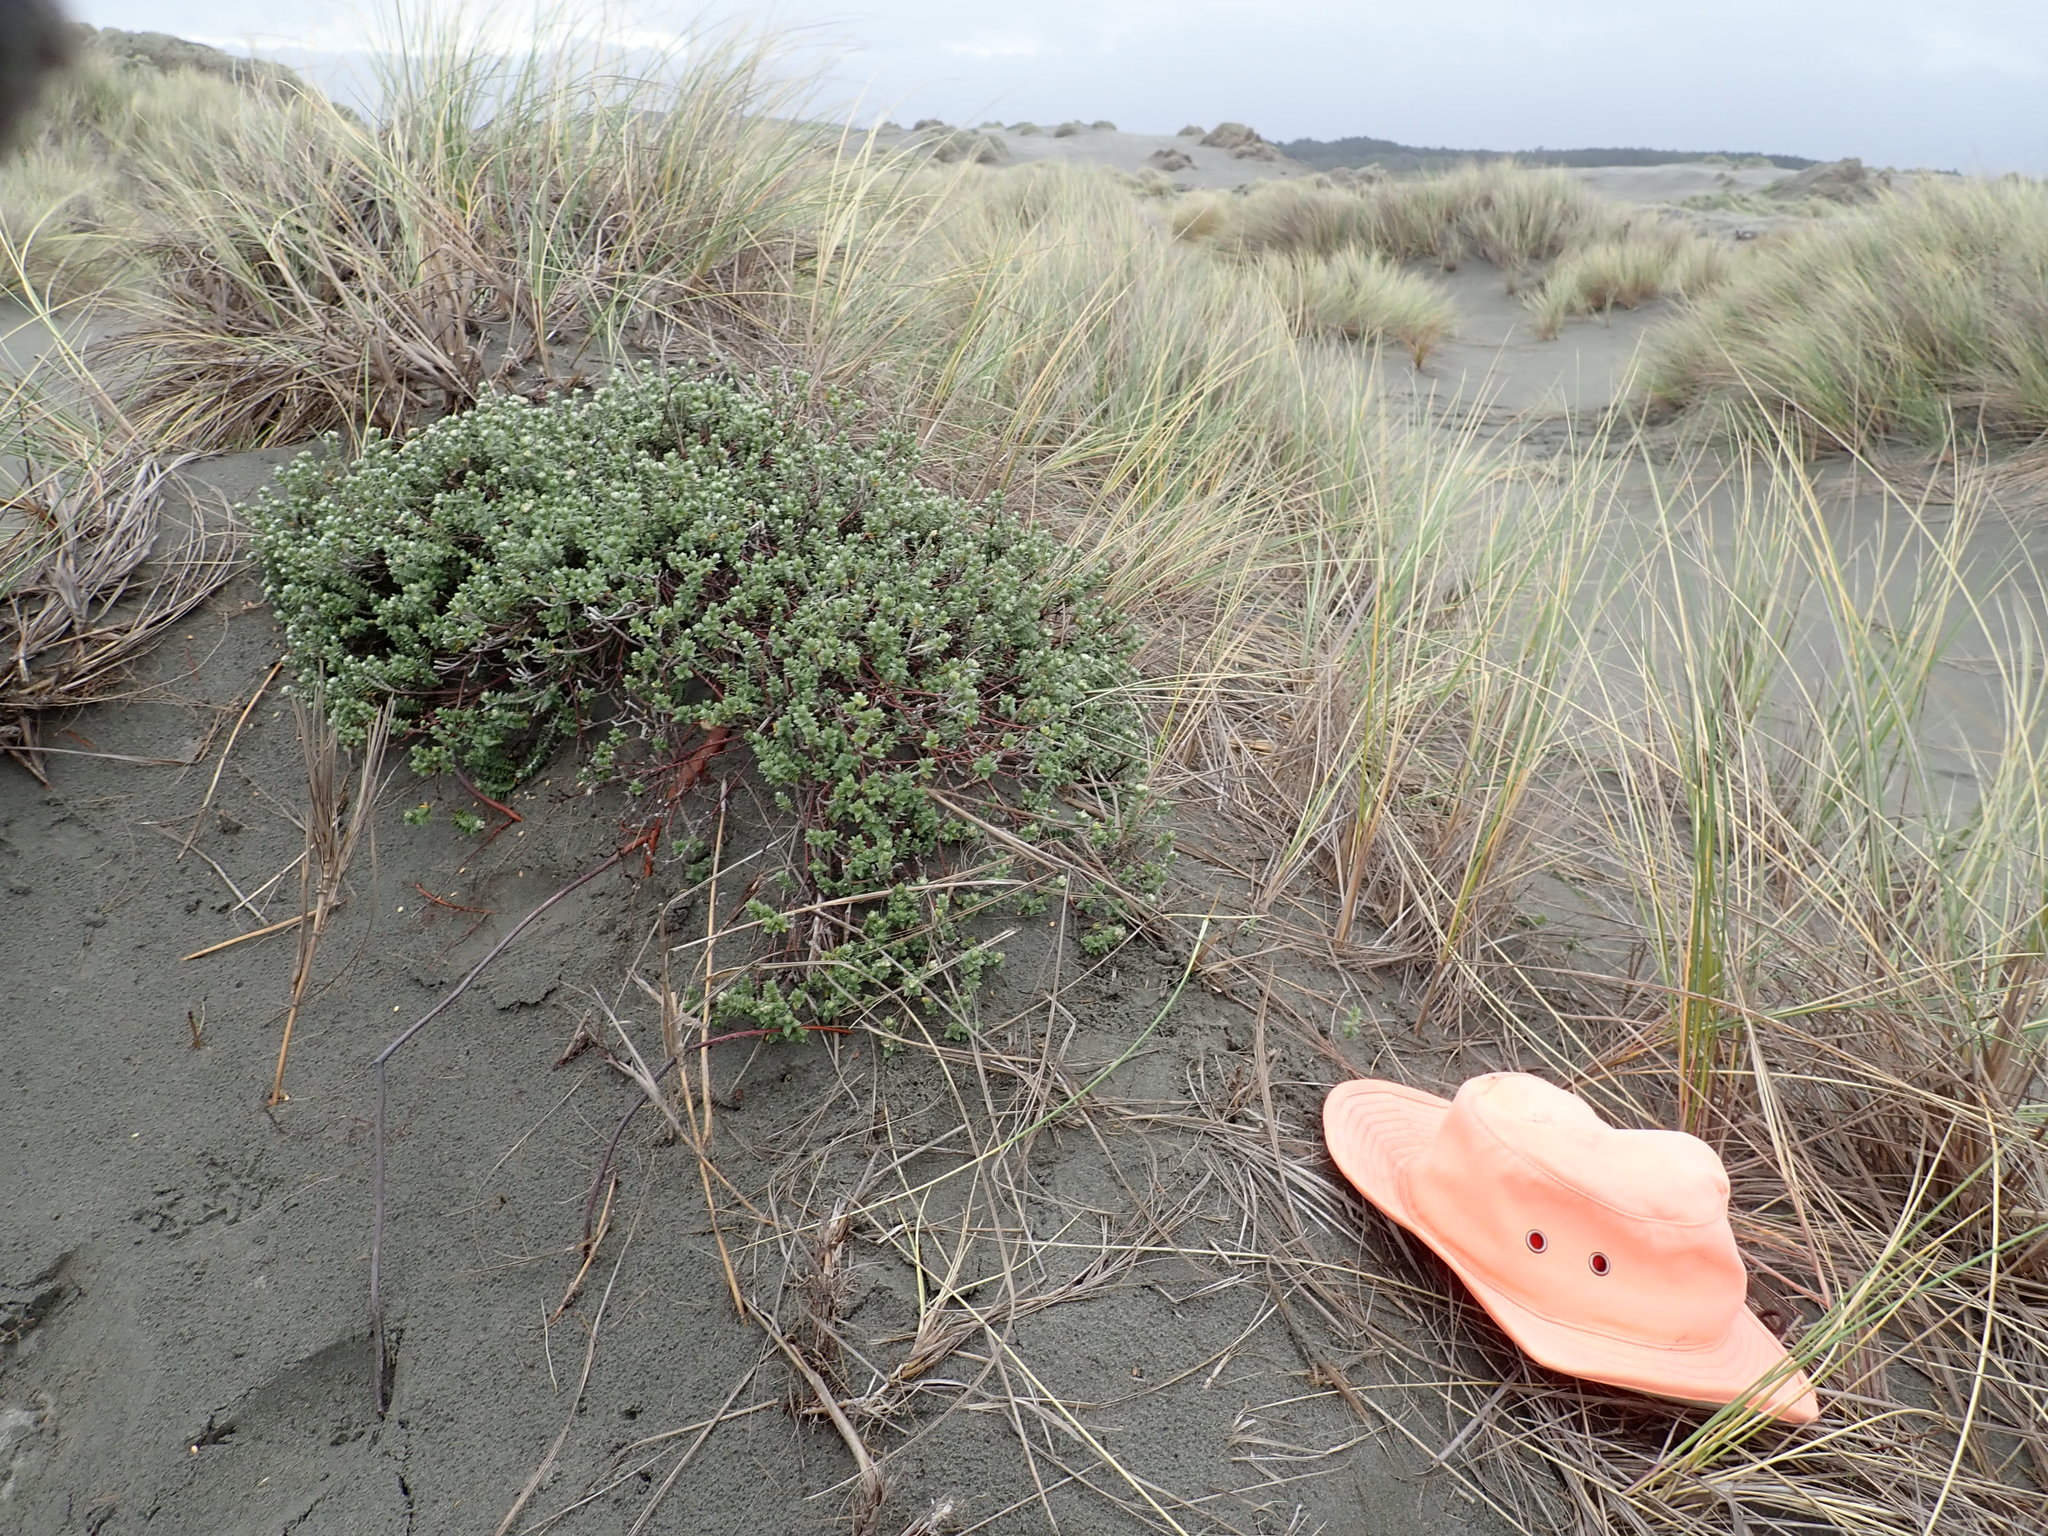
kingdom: Plantae
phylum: Tracheophyta
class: Magnoliopsida
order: Malvales
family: Thymelaeaceae
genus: Pimelea
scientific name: Pimelea villosa
